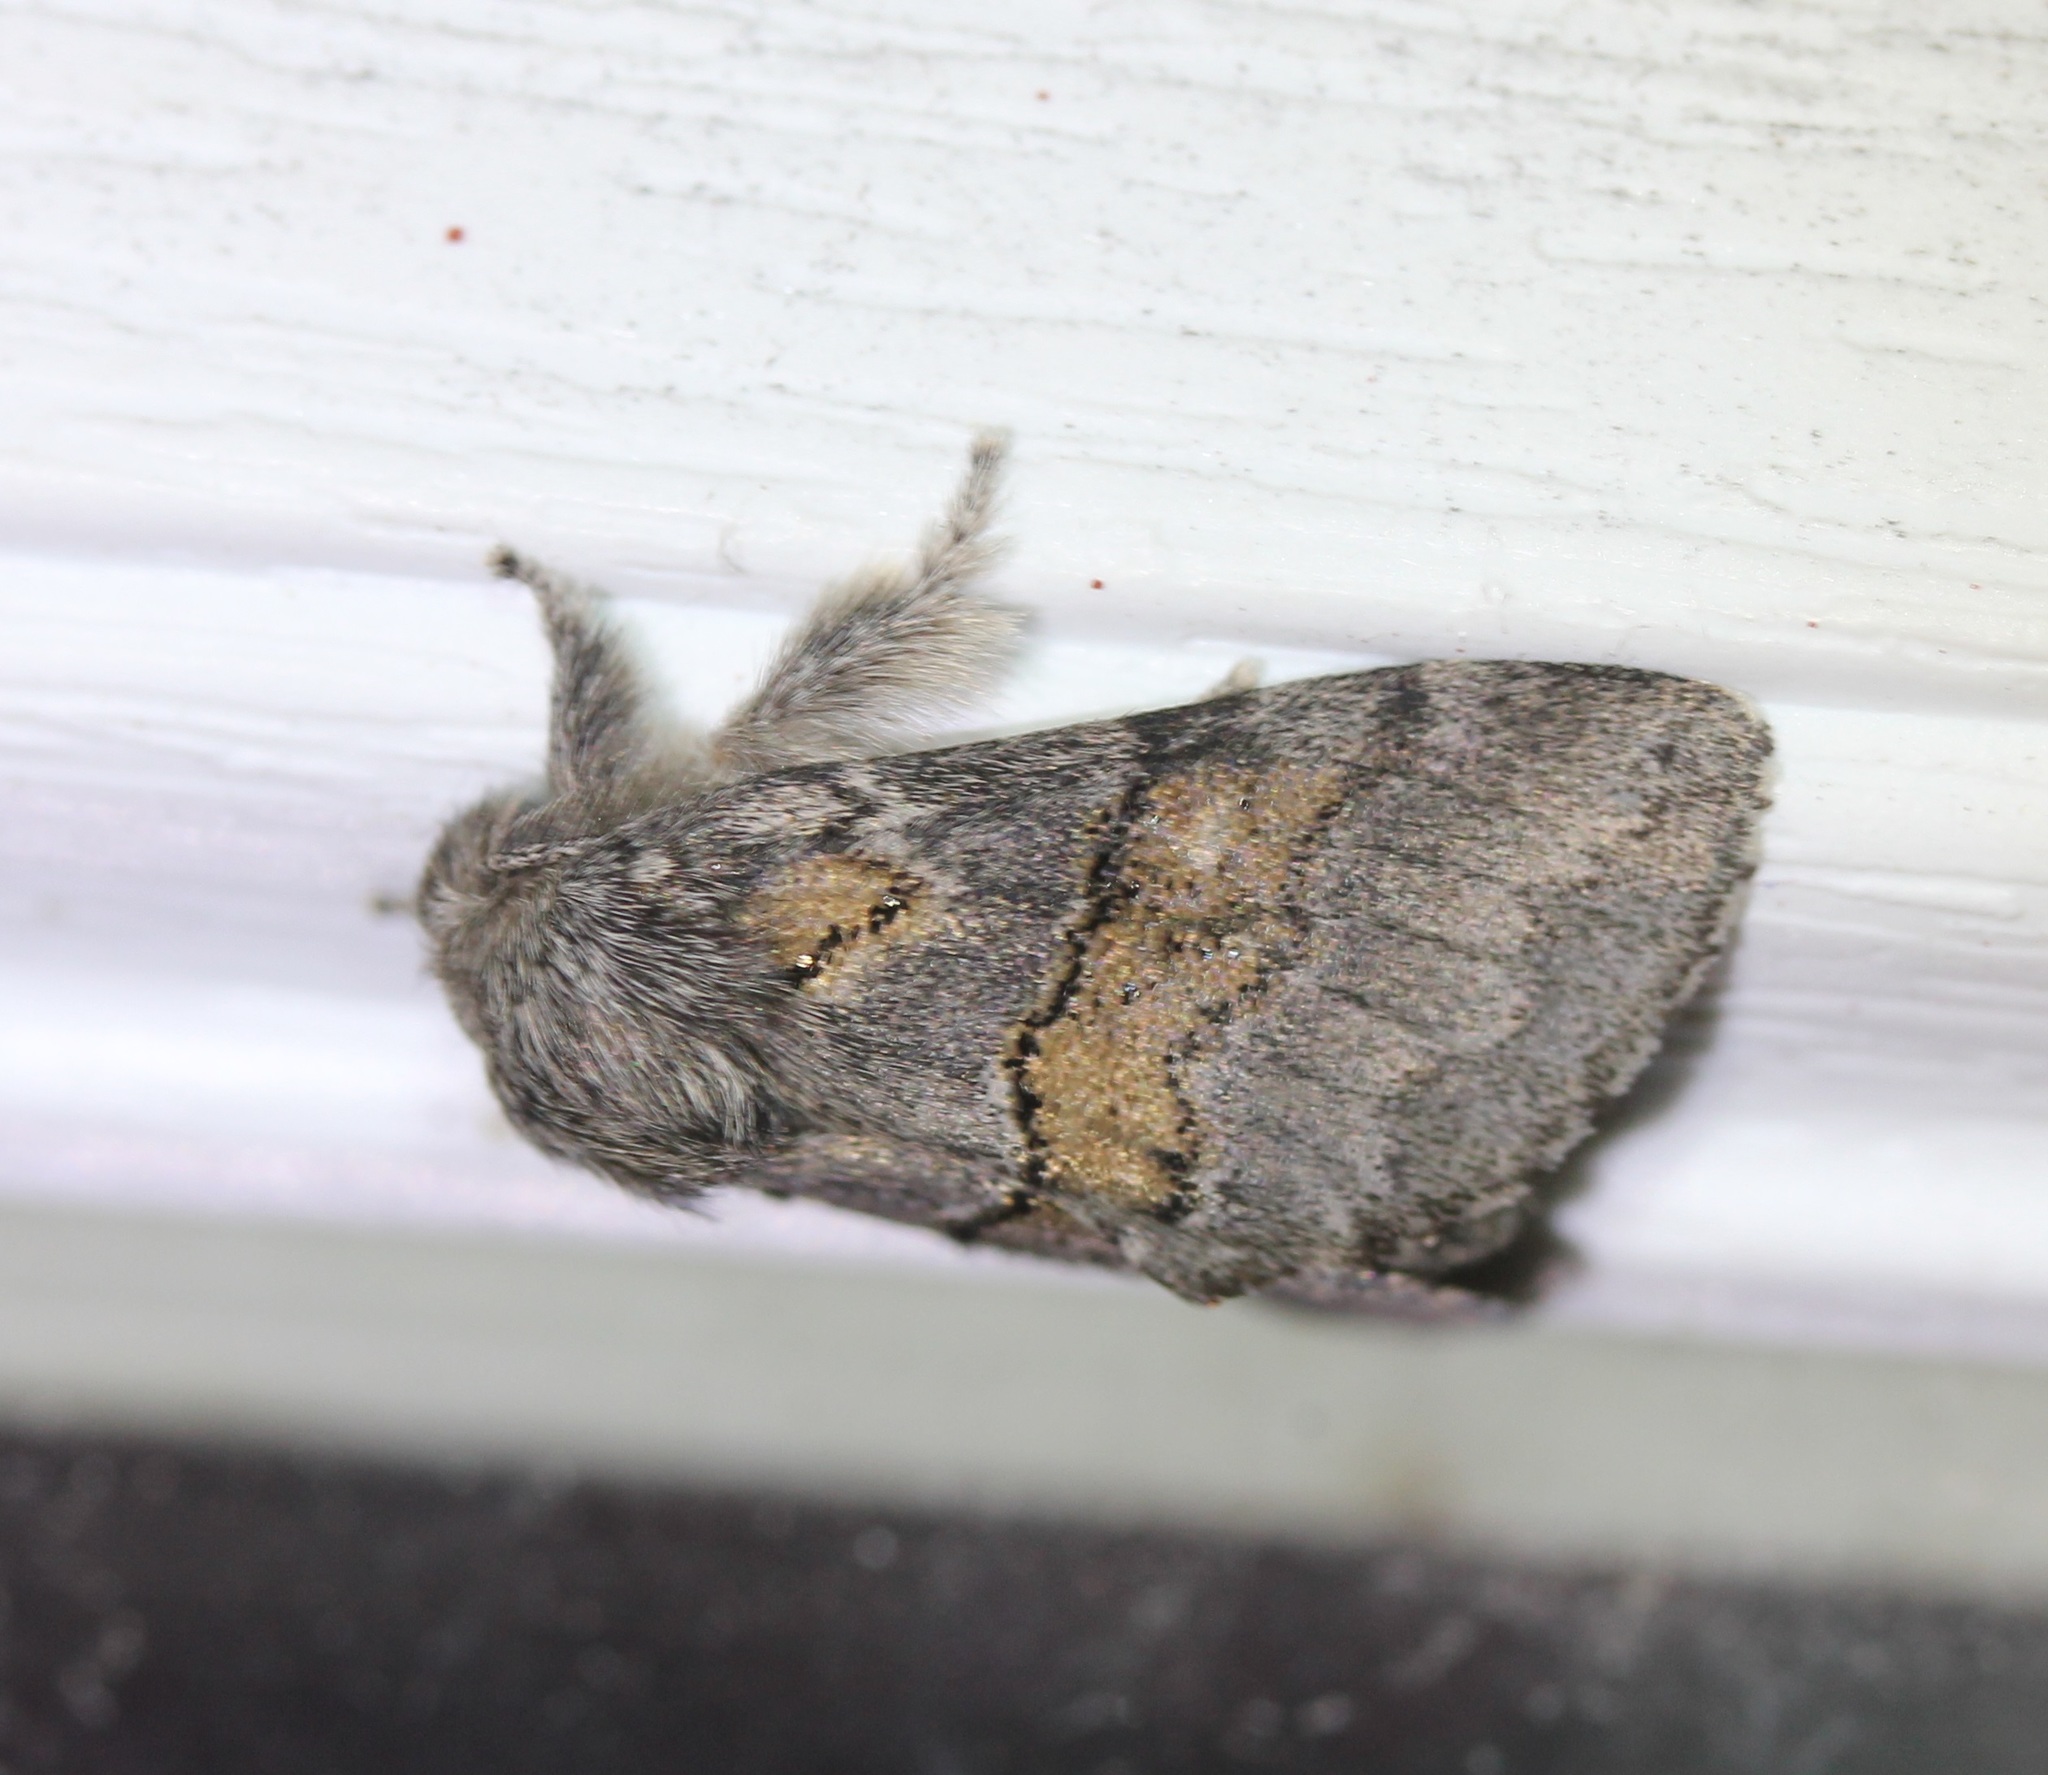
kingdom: Animalia
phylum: Arthropoda
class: Insecta
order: Lepidoptera
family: Notodontidae
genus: Gluphisia
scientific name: Gluphisia septentrionis
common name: Common gluphisia
